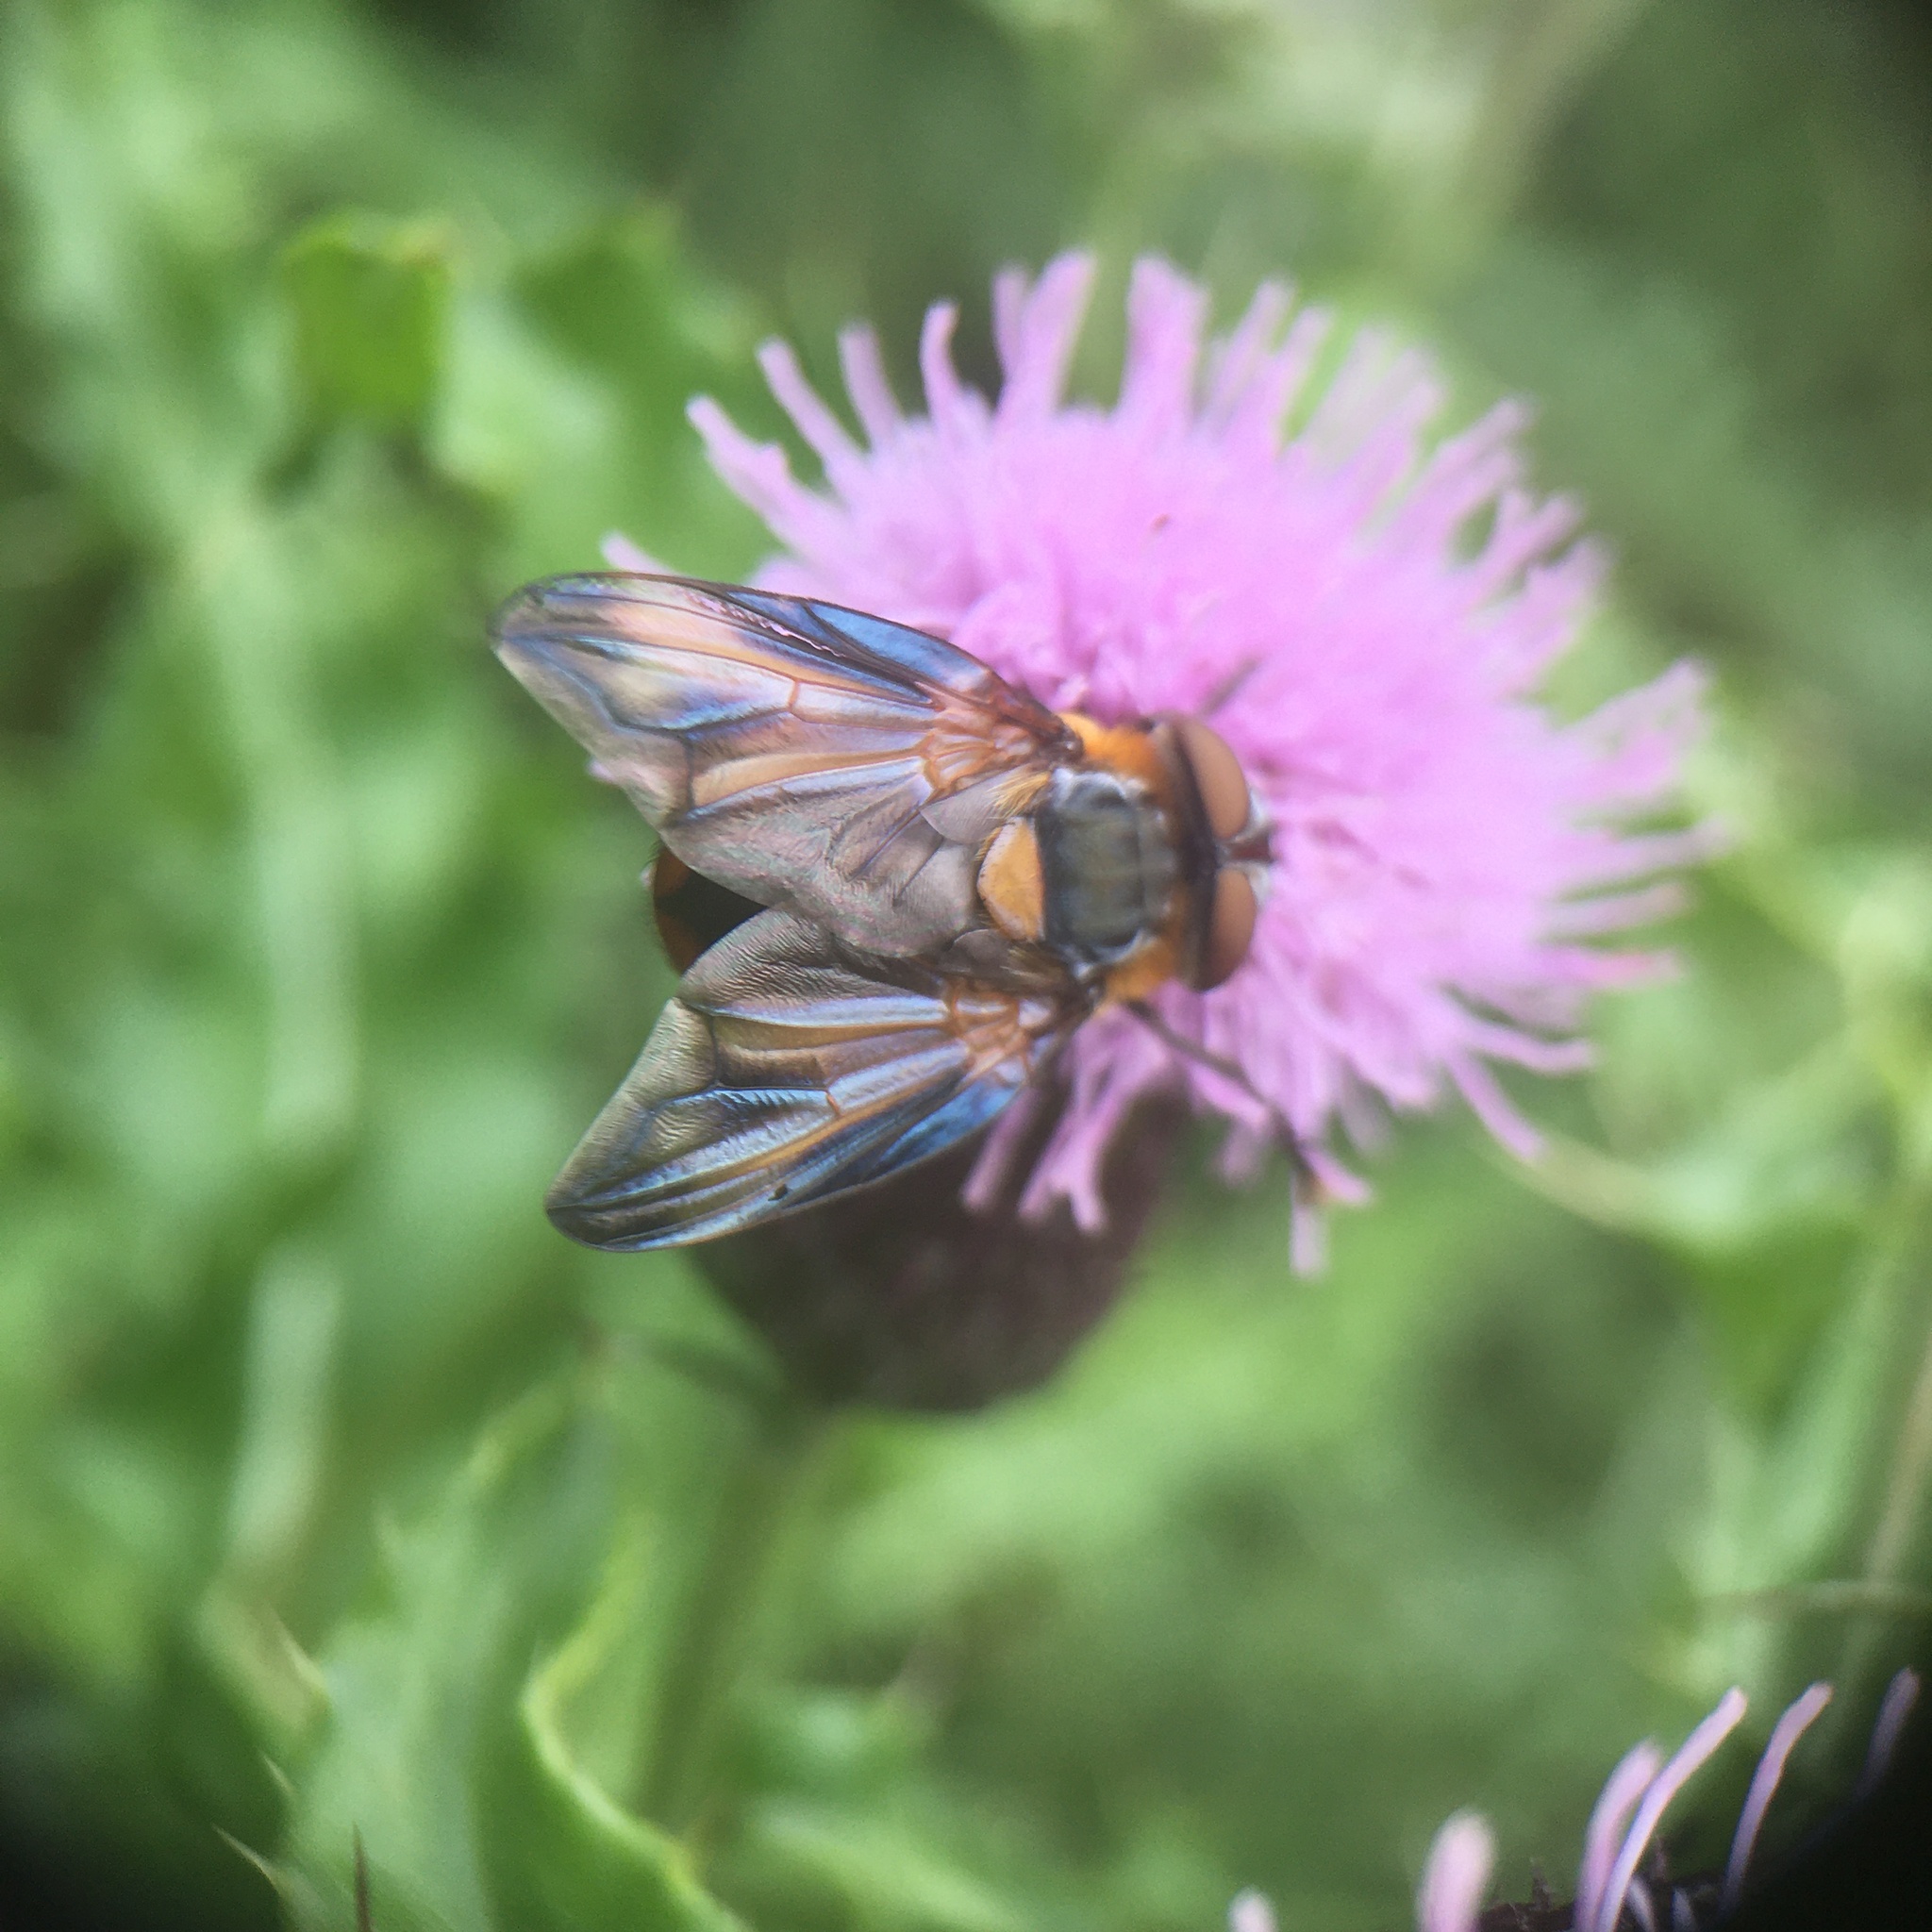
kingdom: Animalia
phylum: Arthropoda
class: Insecta
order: Diptera
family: Tachinidae
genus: Phasia
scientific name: Phasia hemiptera
